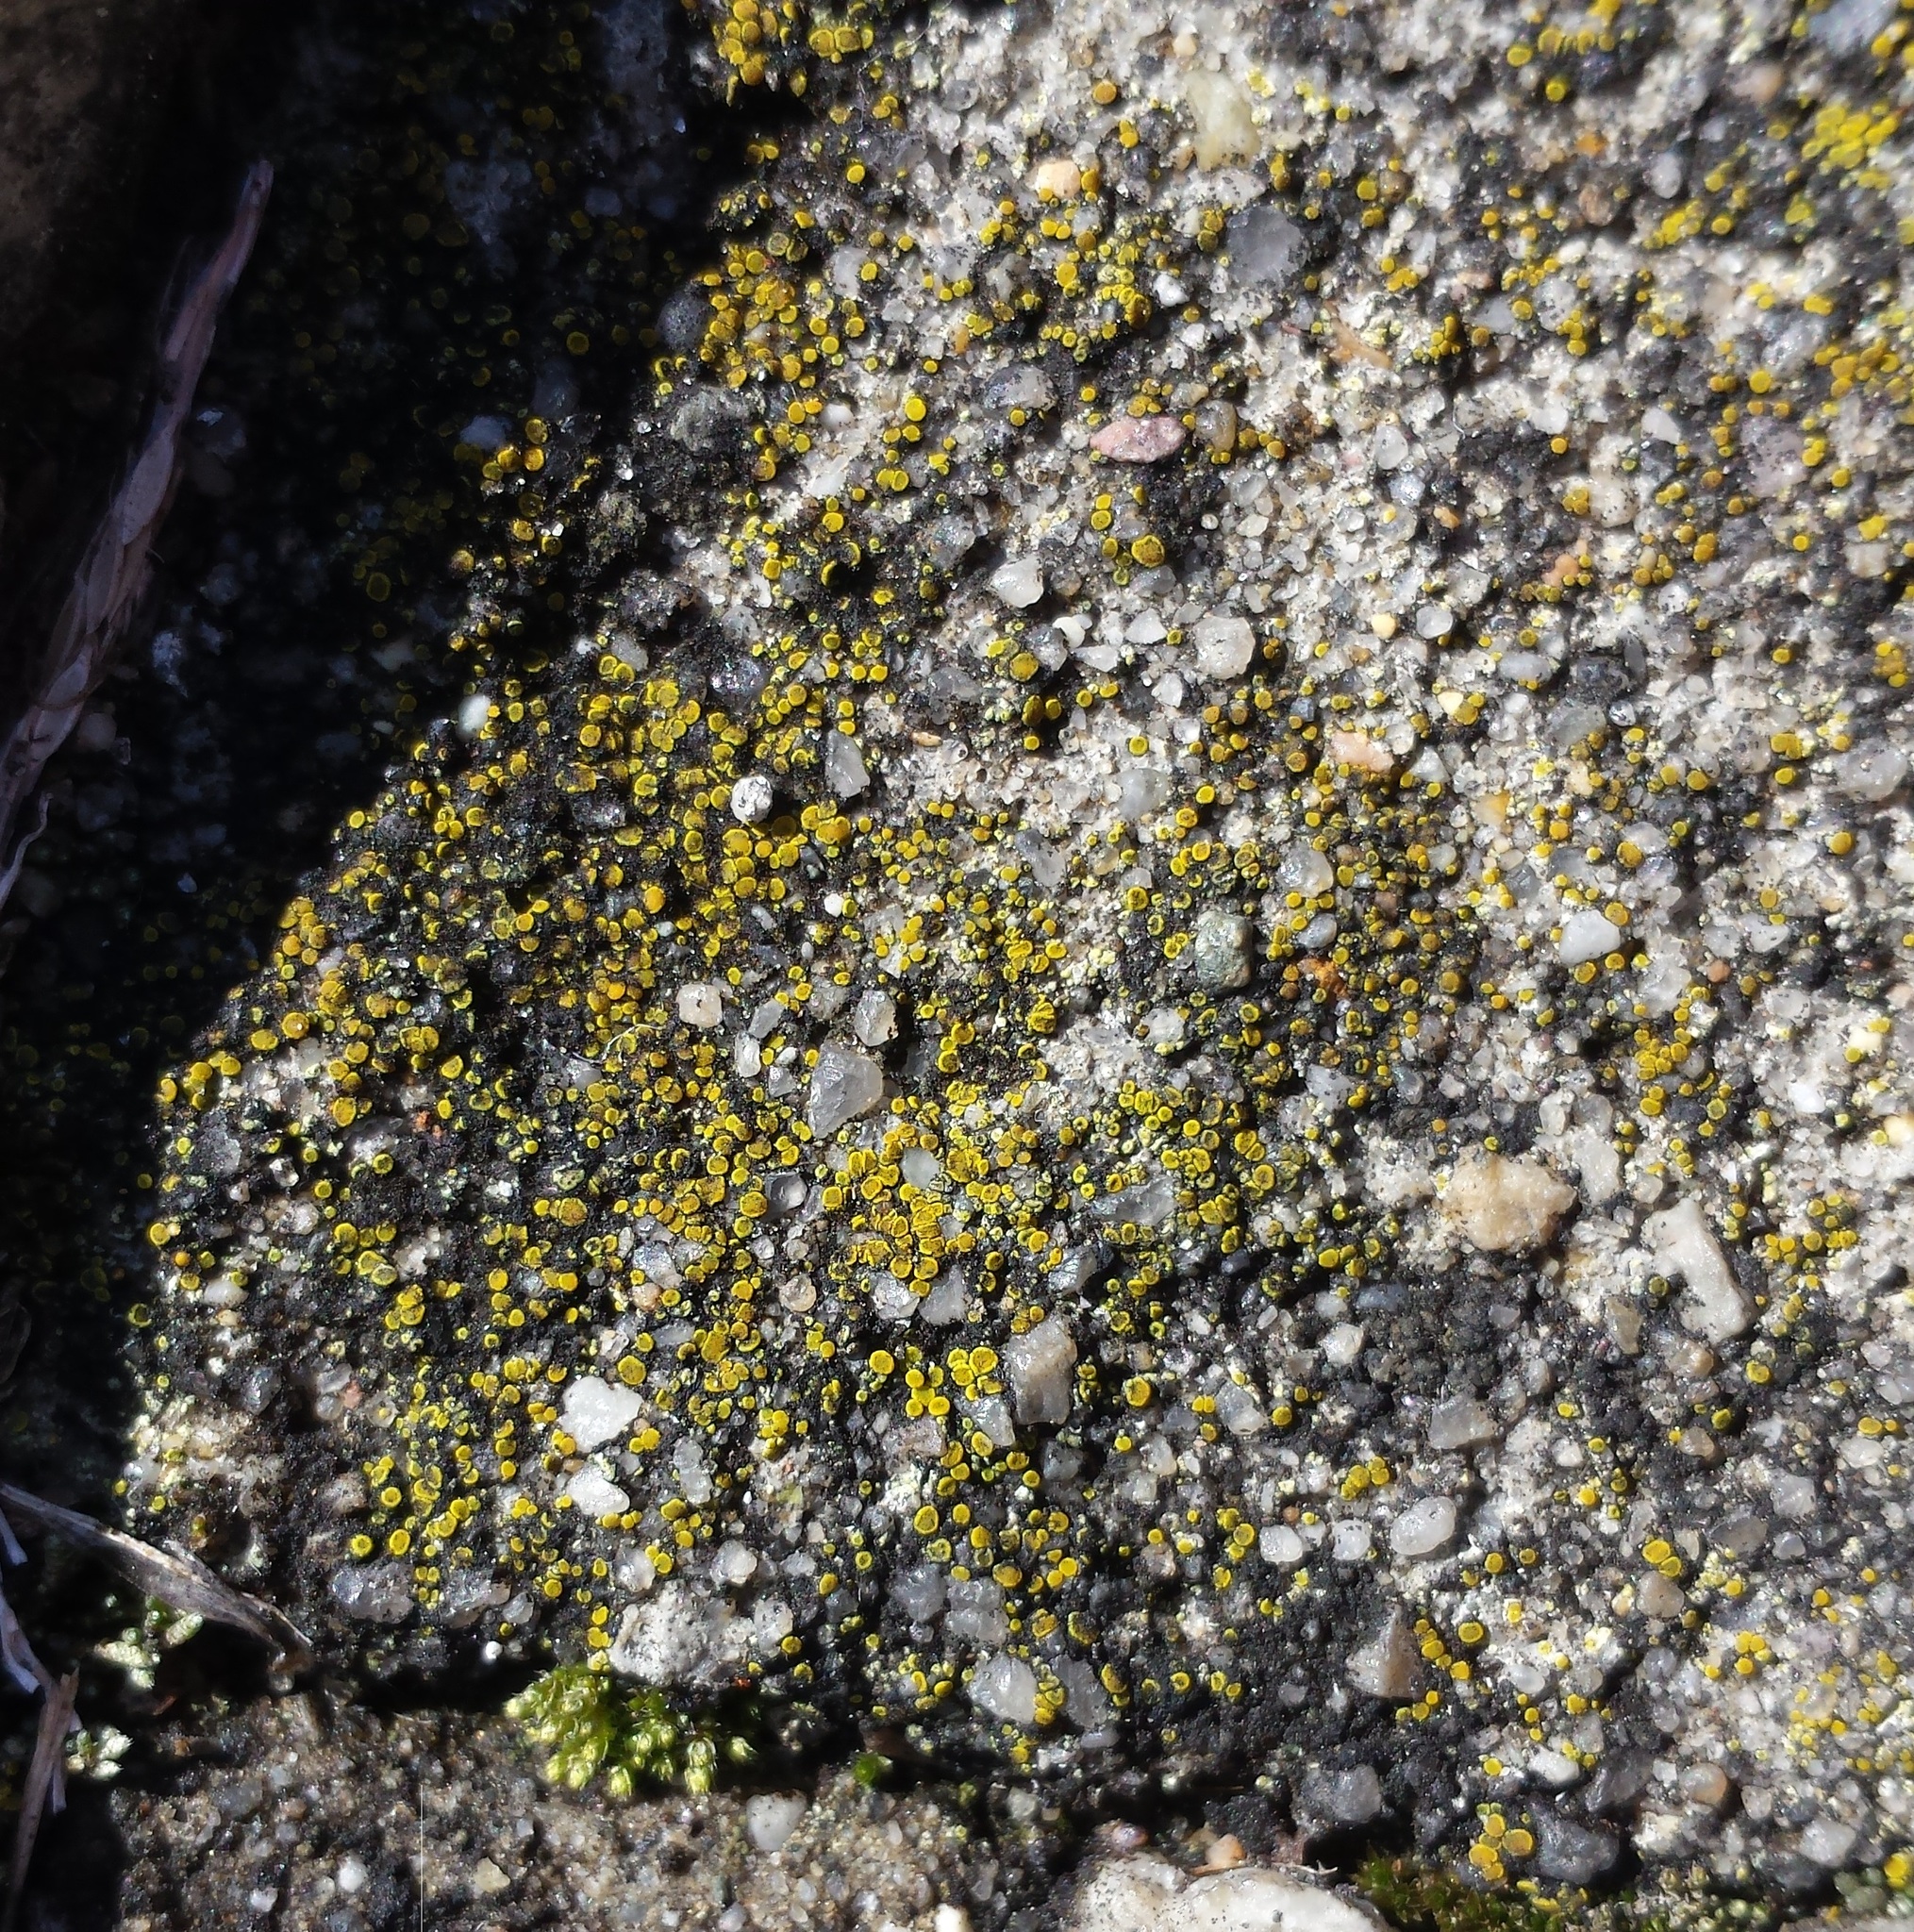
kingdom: Fungi
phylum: Ascomycota
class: Candelariomycetes
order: Candelariales
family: Candelariaceae
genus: Candelariella
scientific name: Candelariella aurella
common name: Hidden goldspeck lichen
